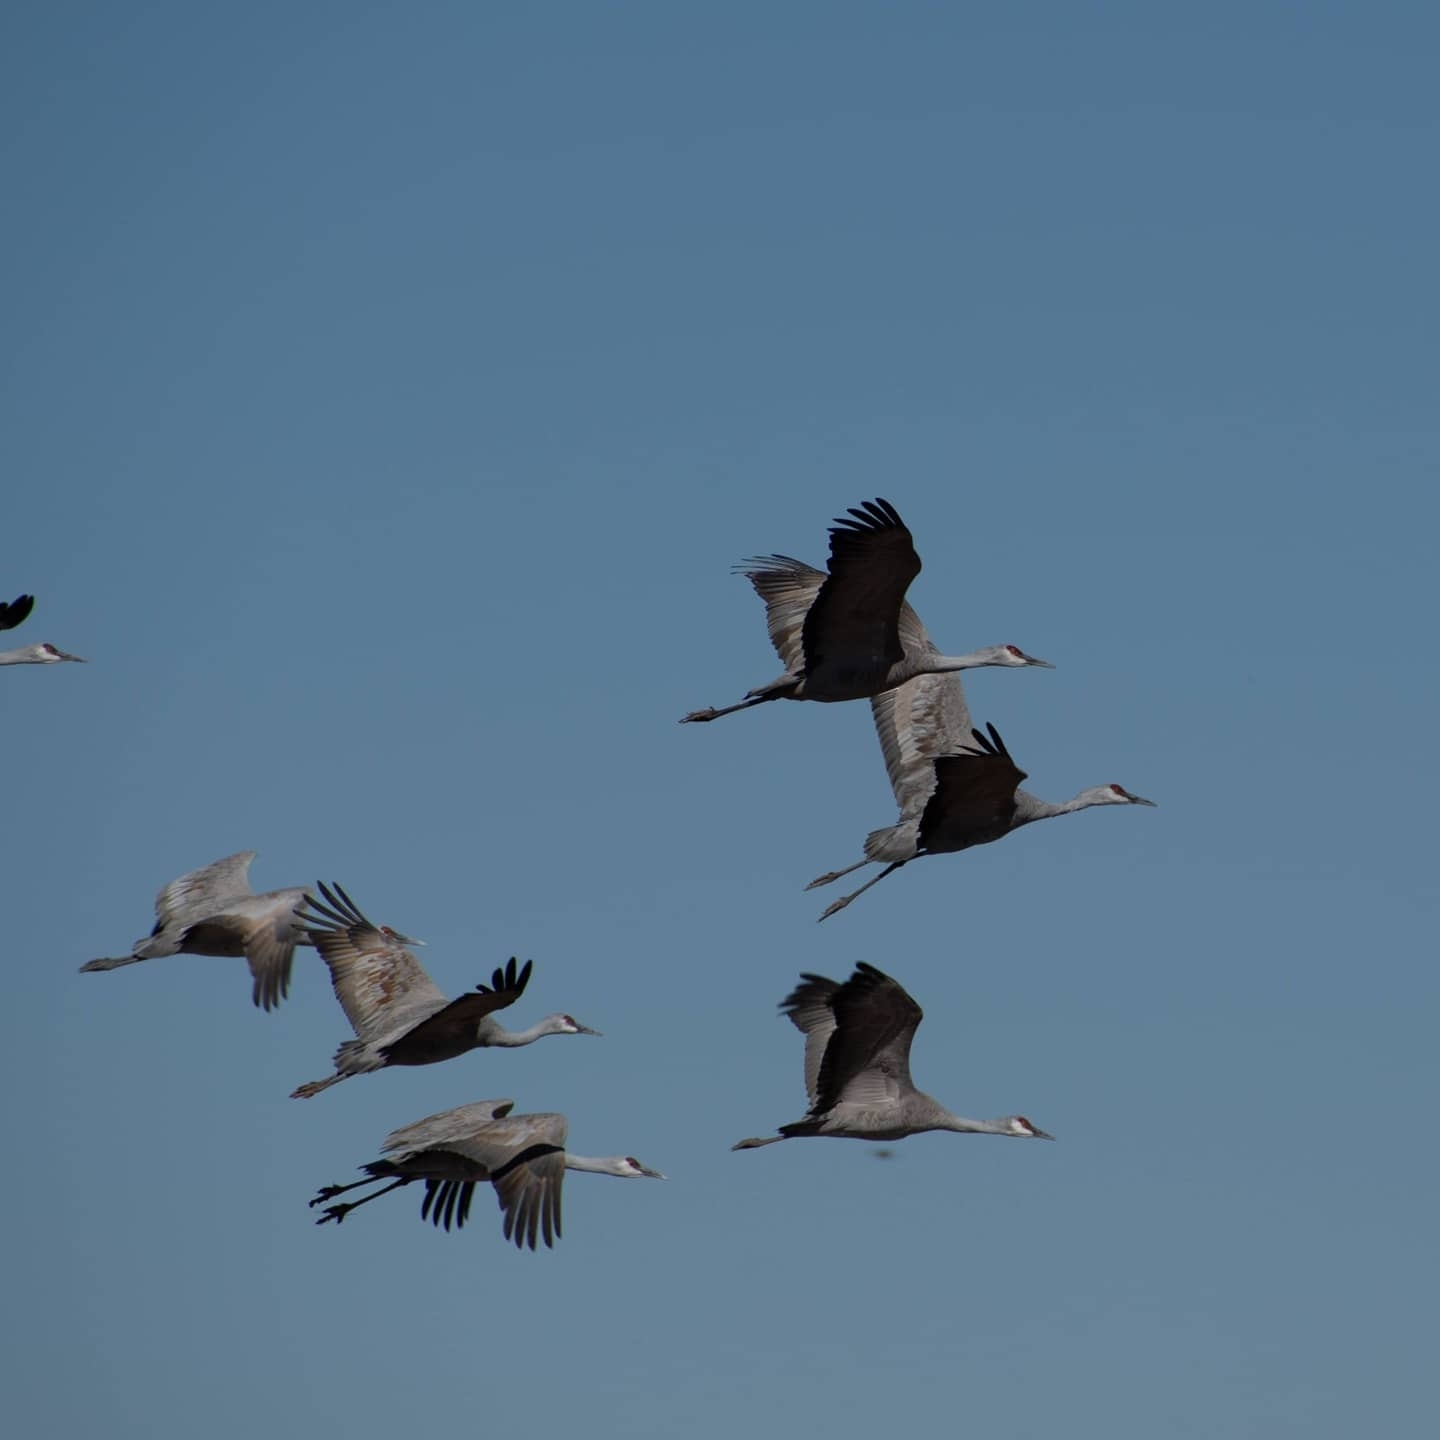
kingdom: Animalia
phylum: Chordata
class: Aves
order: Gruiformes
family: Gruidae
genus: Grus
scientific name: Grus canadensis
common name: Sandhill crane
